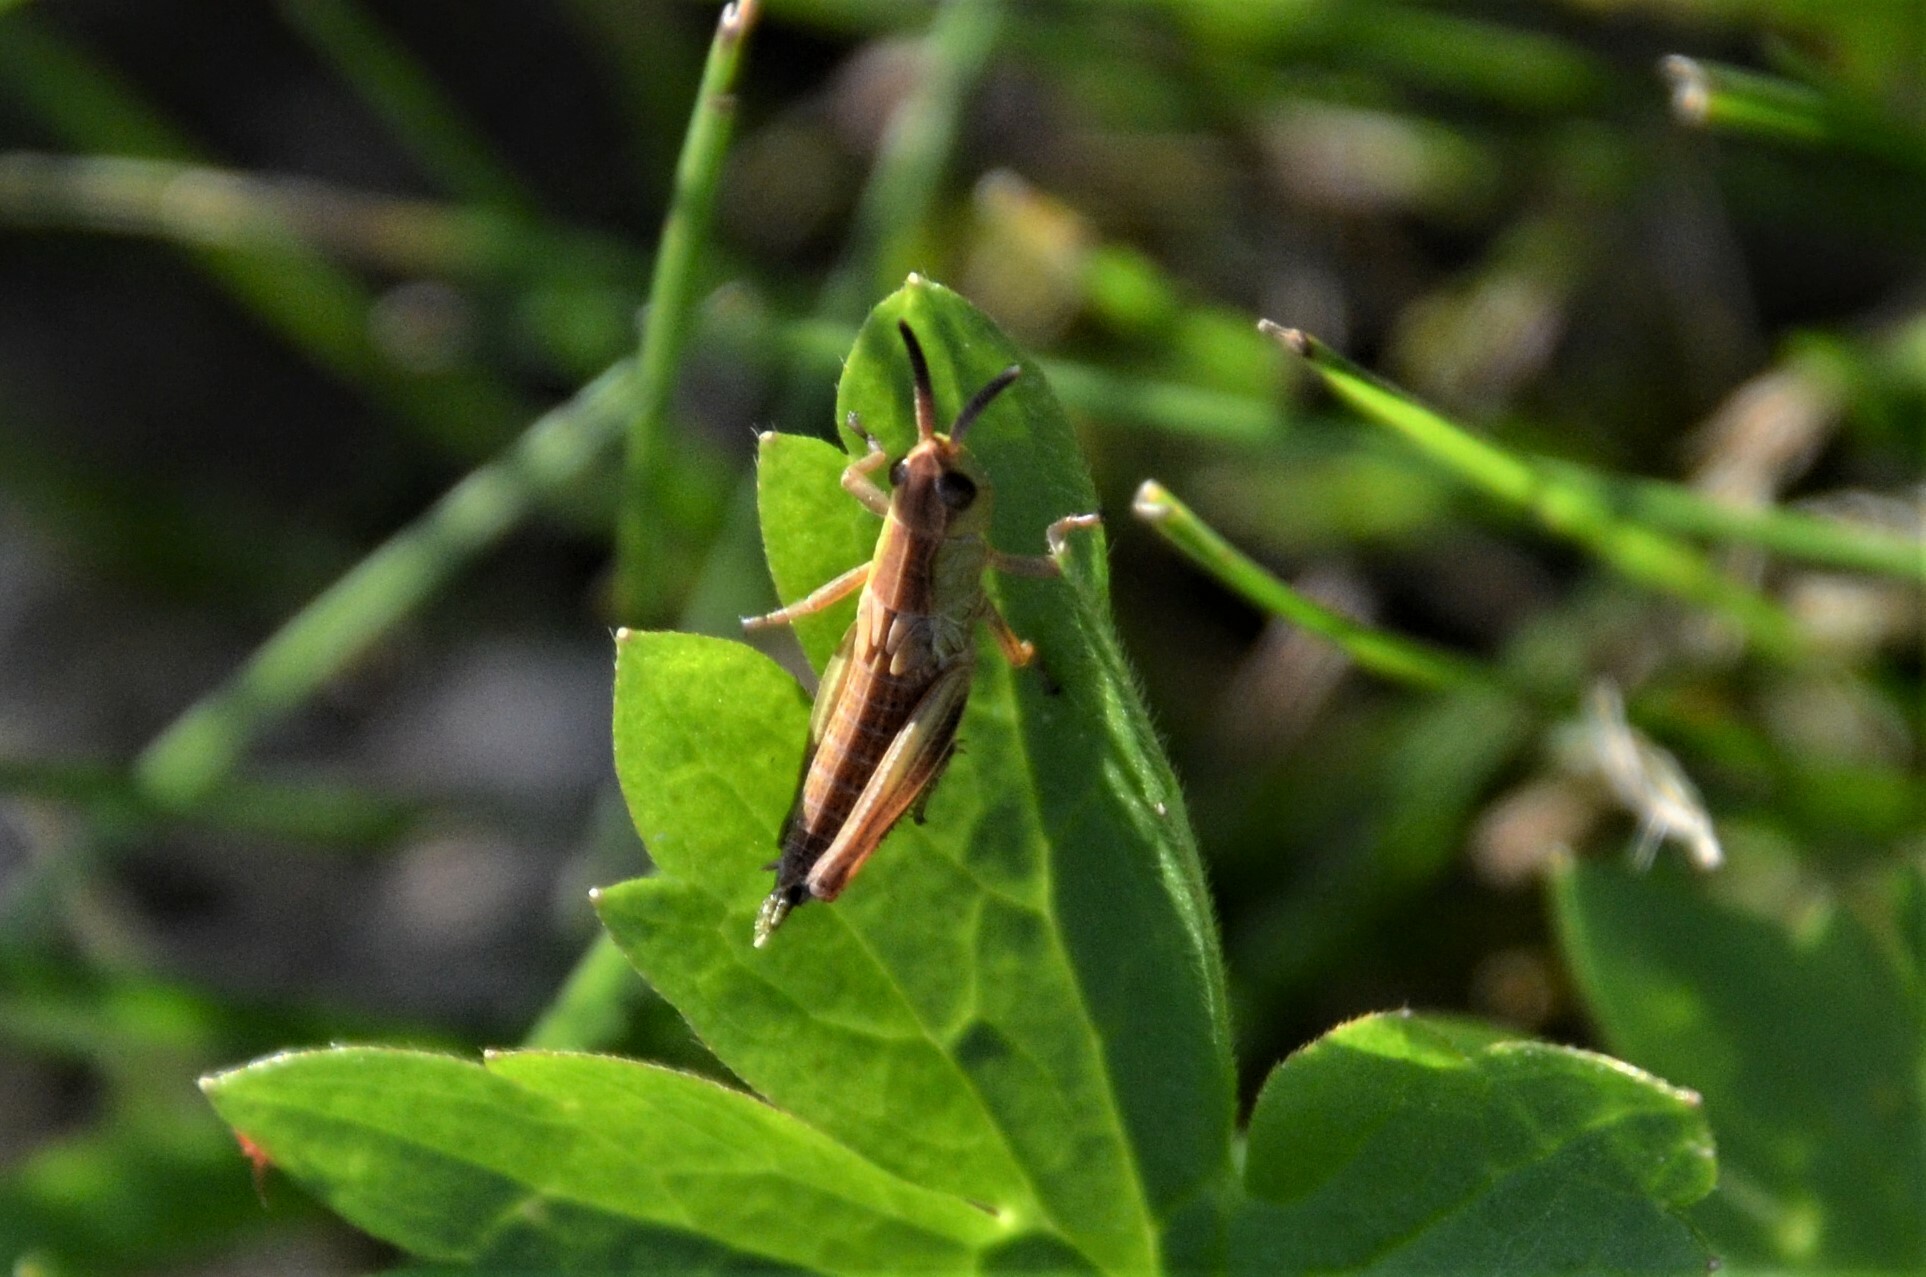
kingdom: Animalia
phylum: Arthropoda
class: Insecta
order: Orthoptera
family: Acrididae
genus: Pseudochorthippus
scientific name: Pseudochorthippus parallelus
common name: Meadow grasshopper
